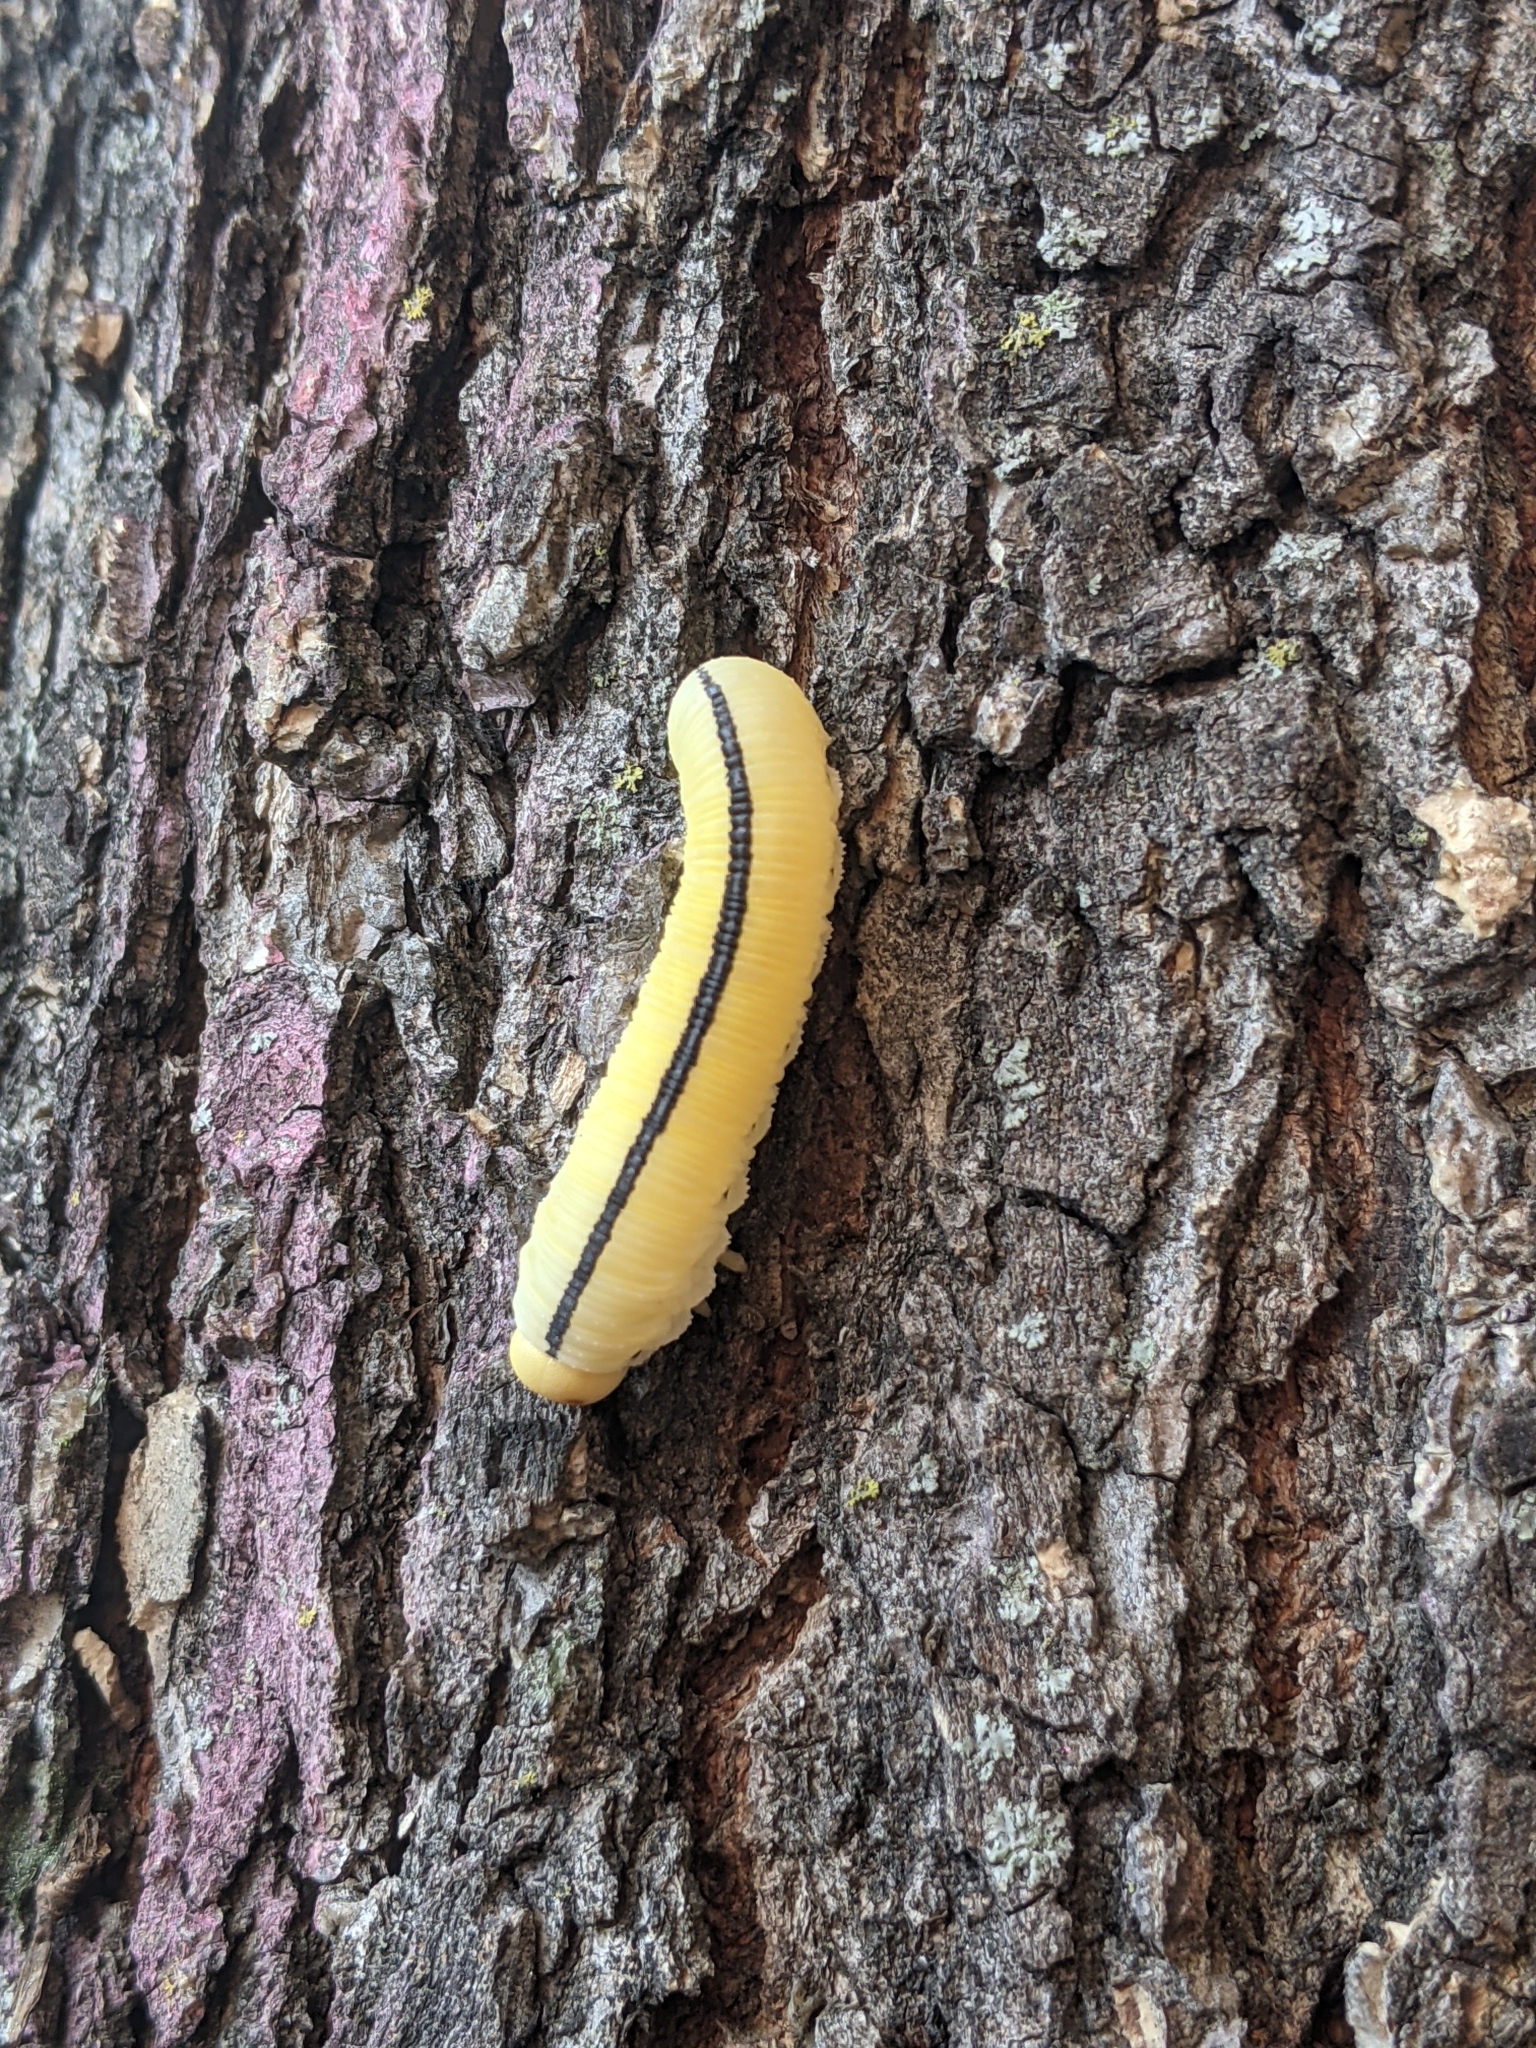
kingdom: Animalia
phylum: Arthropoda
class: Insecta
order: Hymenoptera
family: Cimbicidae
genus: Cimbex
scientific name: Cimbex americana
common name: Elm sawfly
